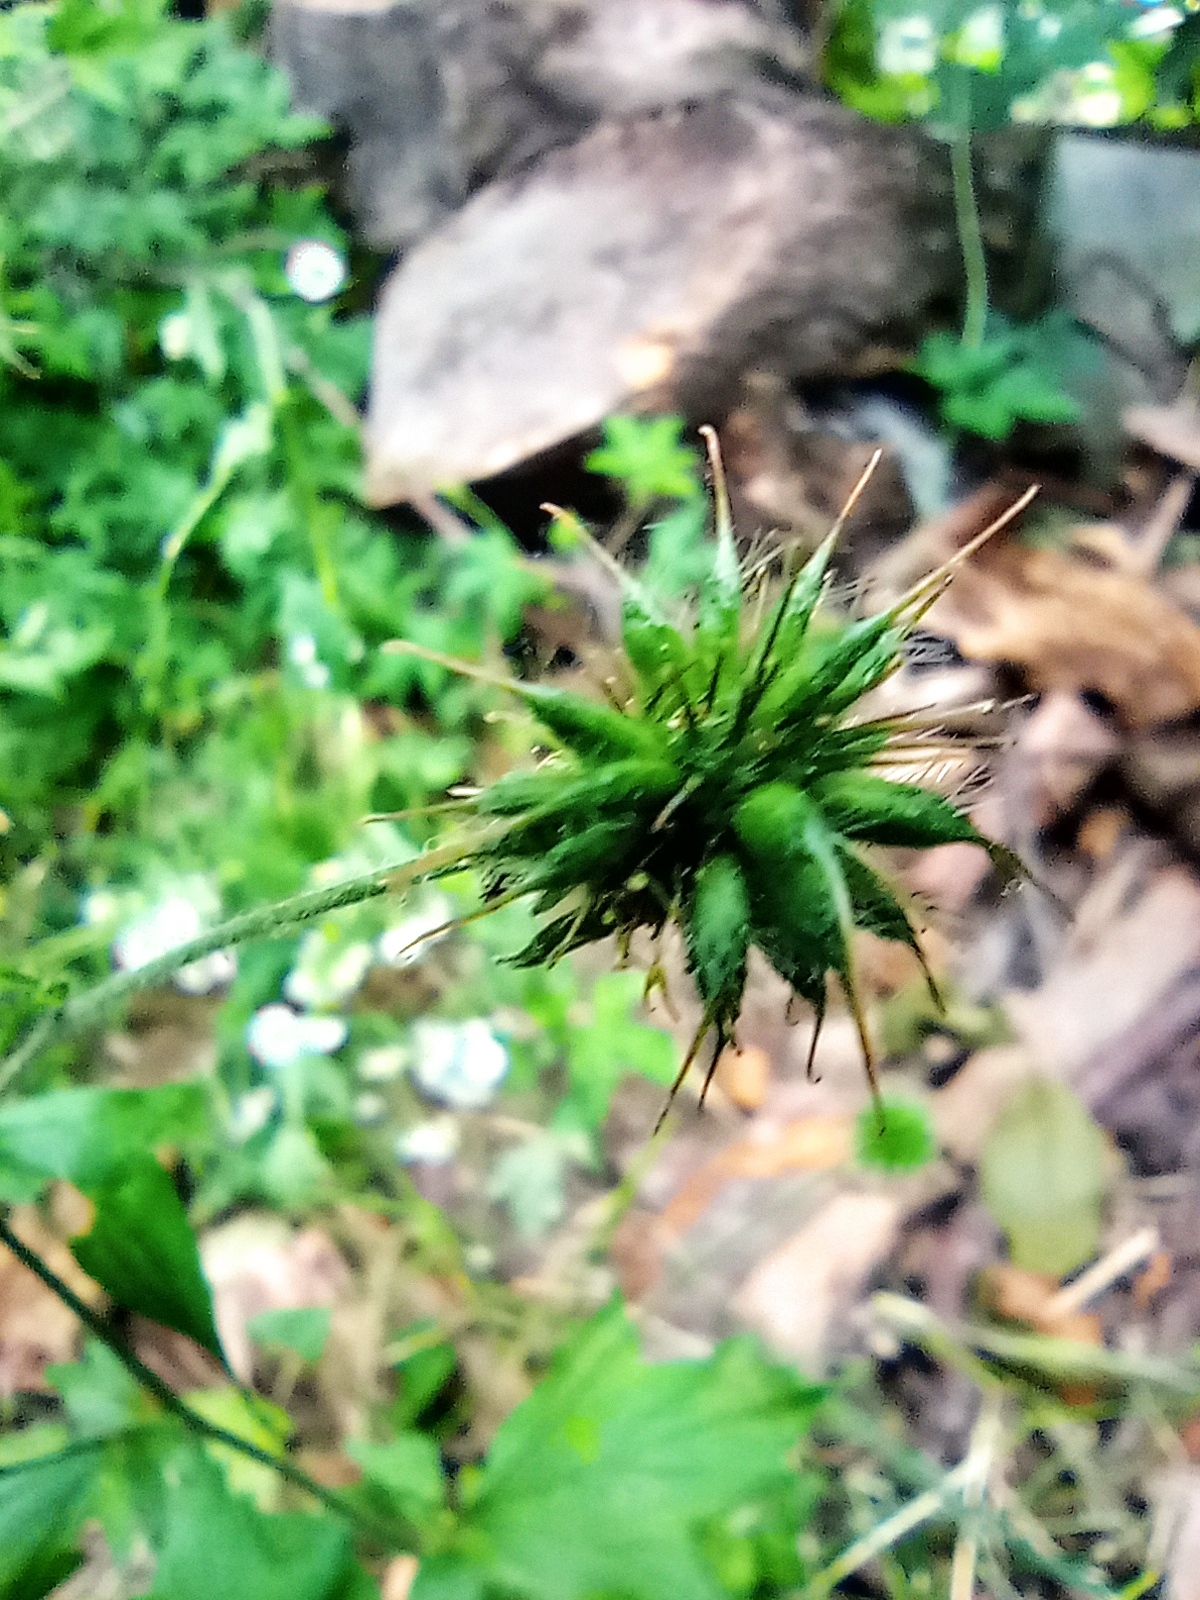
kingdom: Plantae
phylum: Tracheophyta
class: Magnoliopsida
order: Rosales
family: Rosaceae
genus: Geum
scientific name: Geum urbanum
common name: Wood avens
